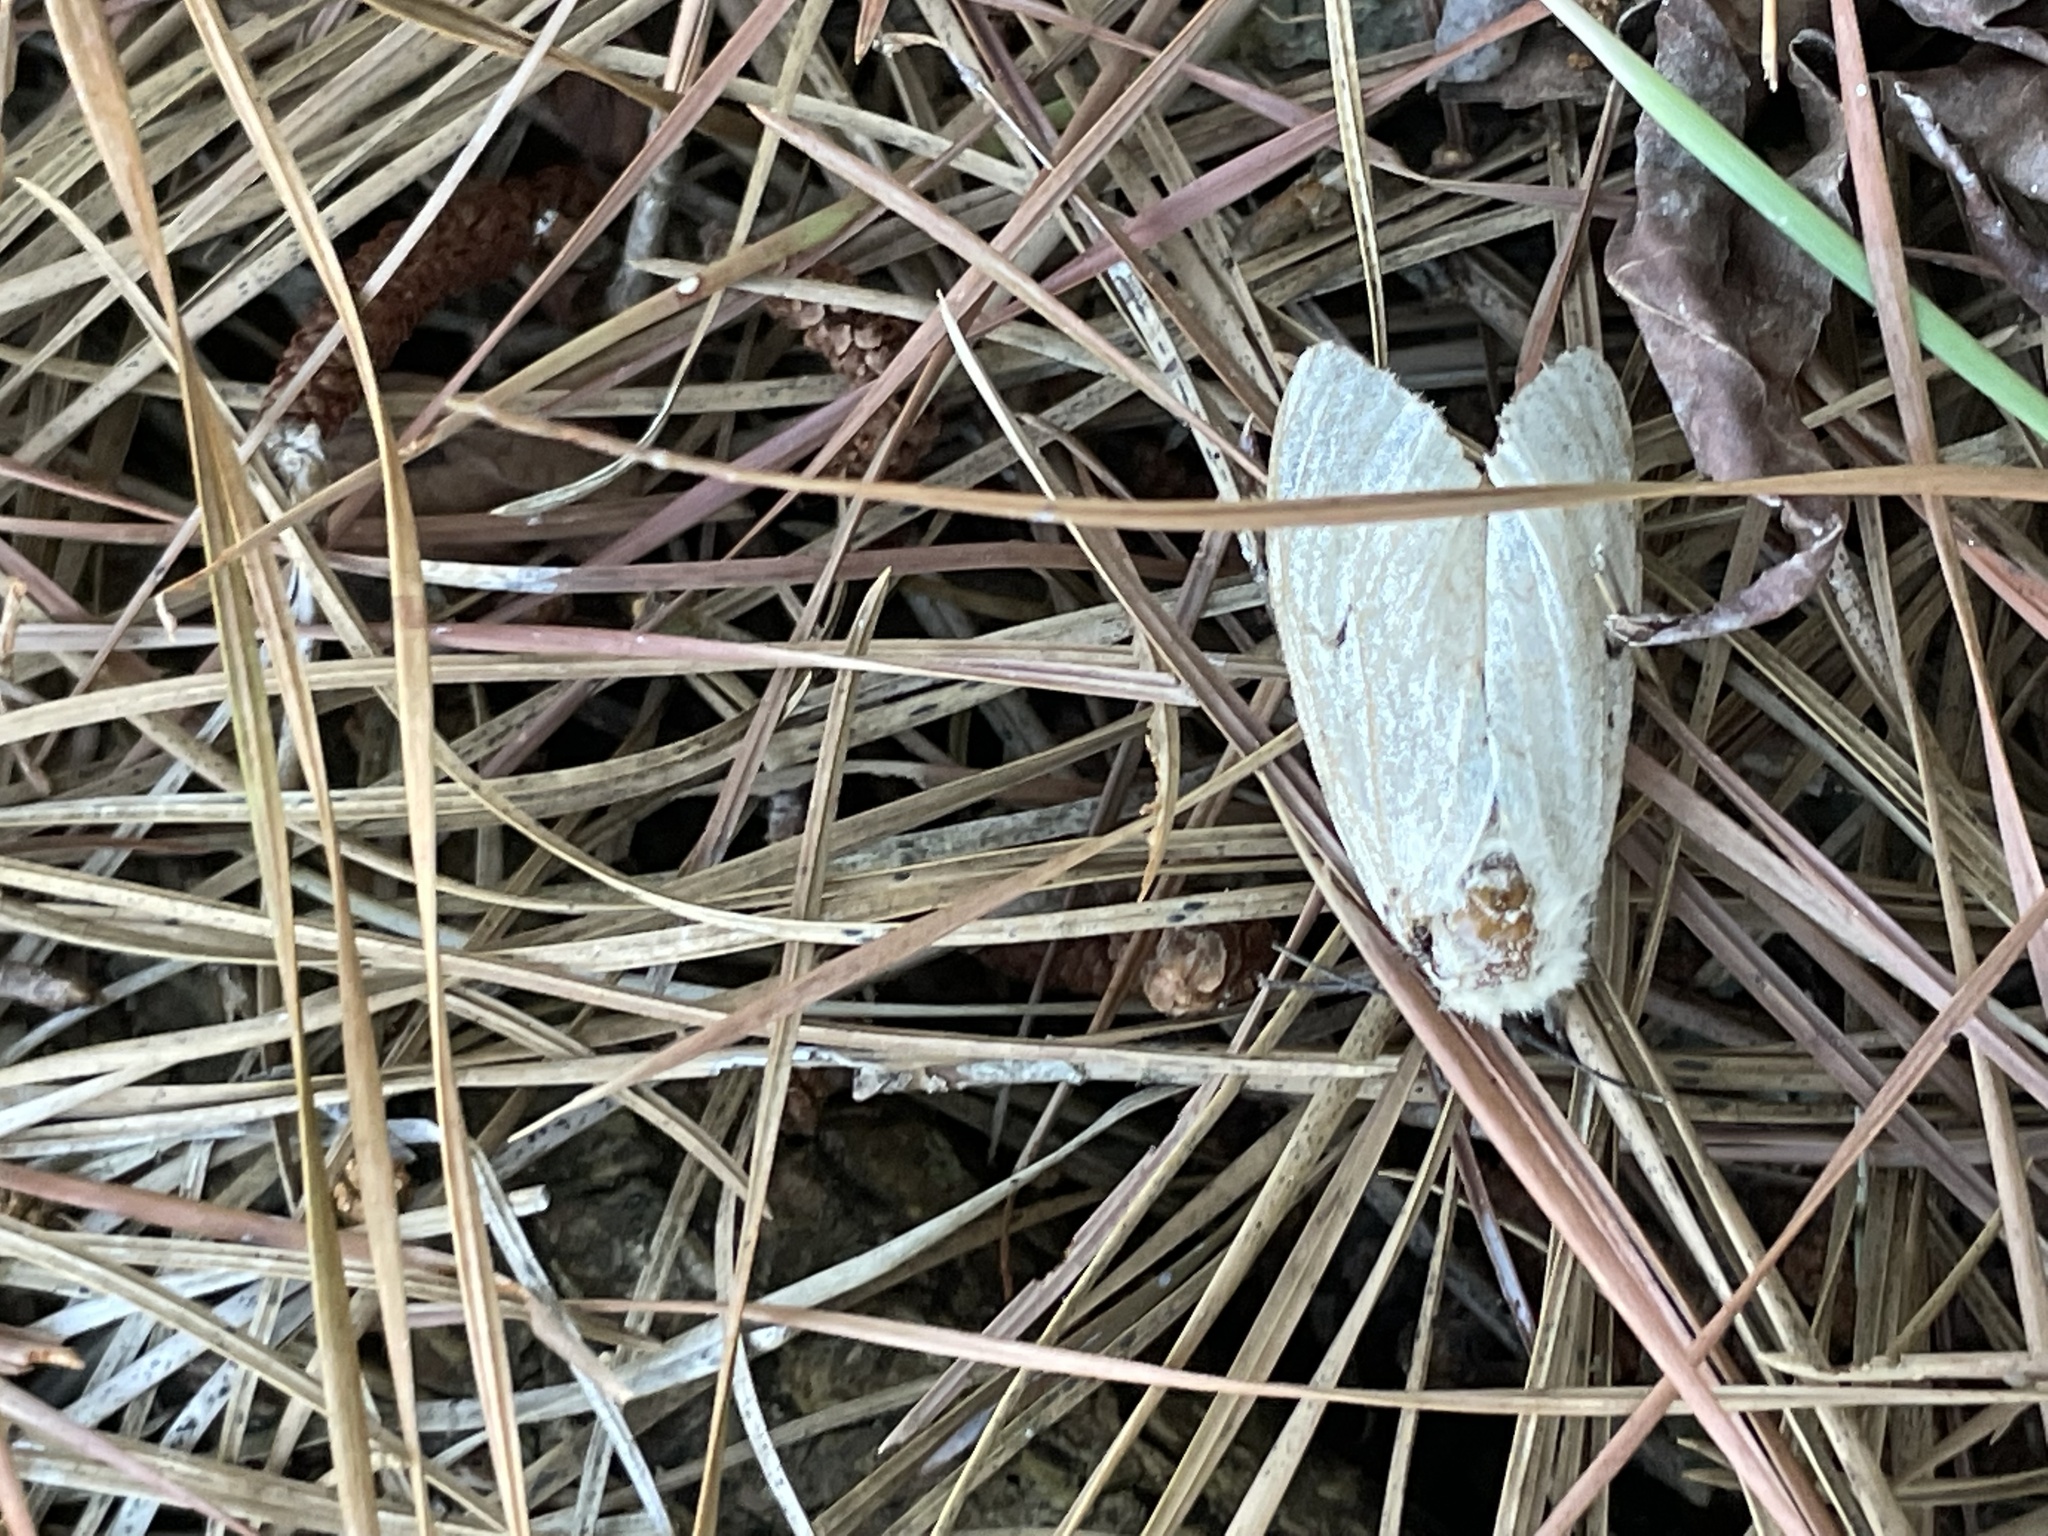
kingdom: Animalia
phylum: Arthropoda
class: Insecta
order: Lepidoptera
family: Erebidae
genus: Lymantria
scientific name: Lymantria dispar
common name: Gypsy moth
